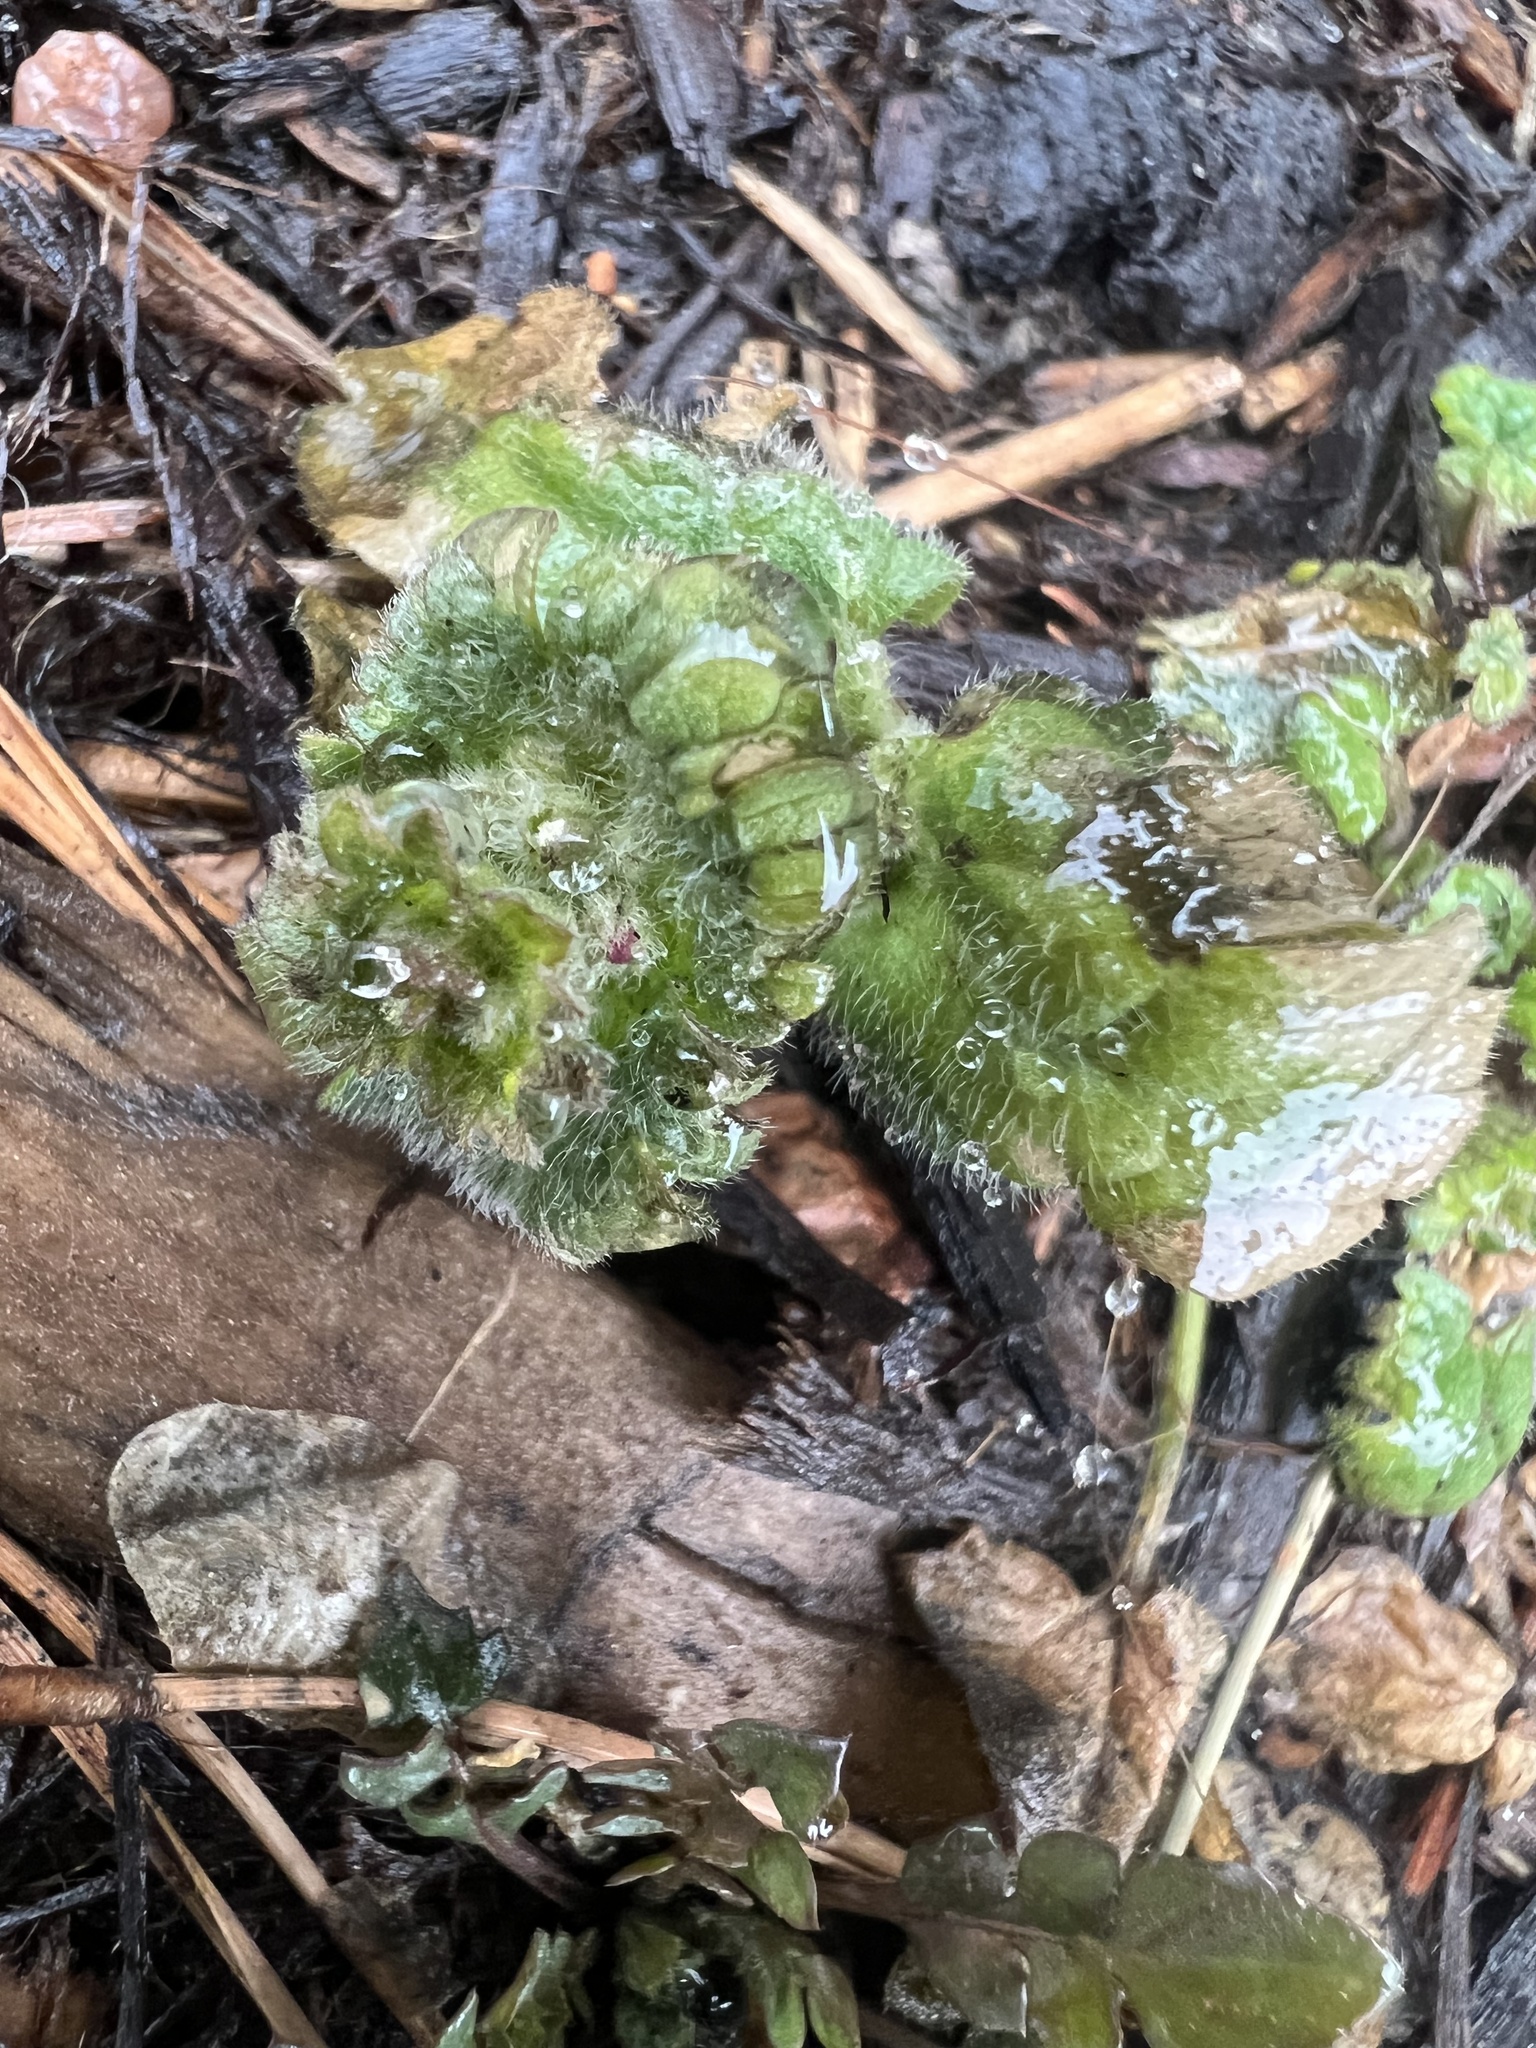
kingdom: Plantae
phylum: Tracheophyta
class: Magnoliopsida
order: Lamiales
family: Lamiaceae
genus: Lamium
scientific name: Lamium amplexicaule
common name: Henbit dead-nettle
